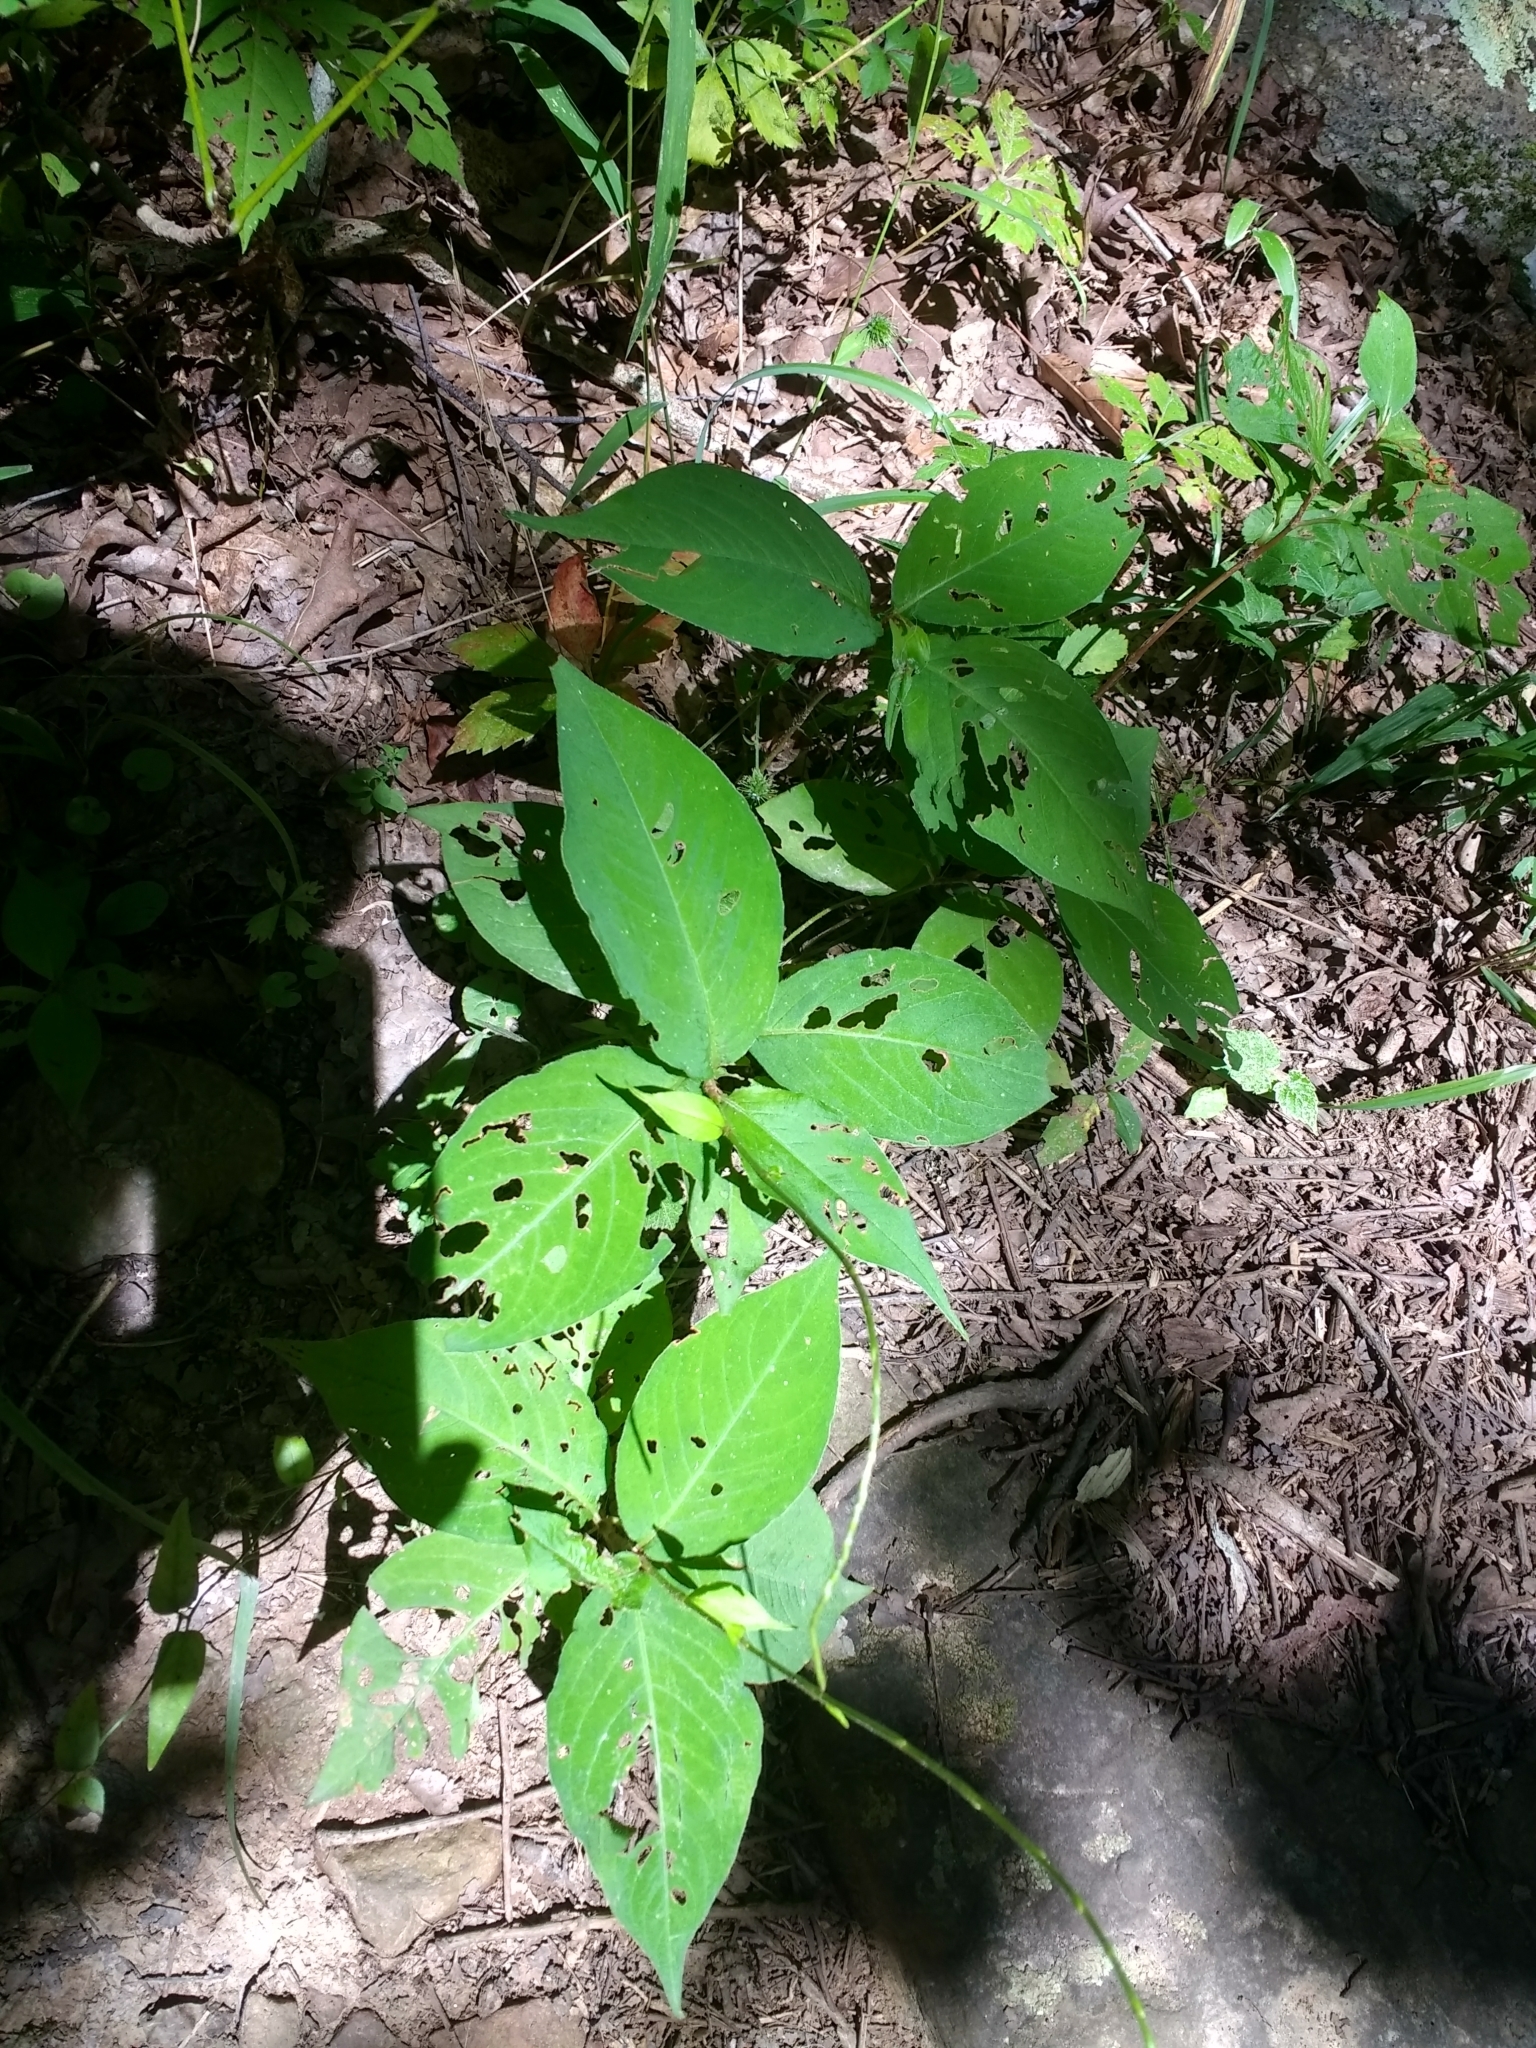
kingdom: Plantae
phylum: Tracheophyta
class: Magnoliopsida
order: Caryophyllales
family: Polygonaceae
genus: Persicaria
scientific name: Persicaria virginiana
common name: Jumpseed
